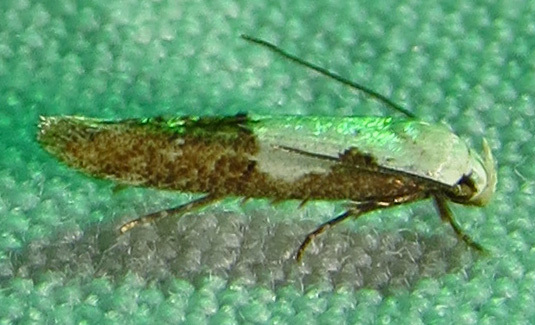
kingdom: Animalia
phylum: Arthropoda
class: Insecta
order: Lepidoptera
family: Momphidae
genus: Mompha
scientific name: Mompha circumscriptella
